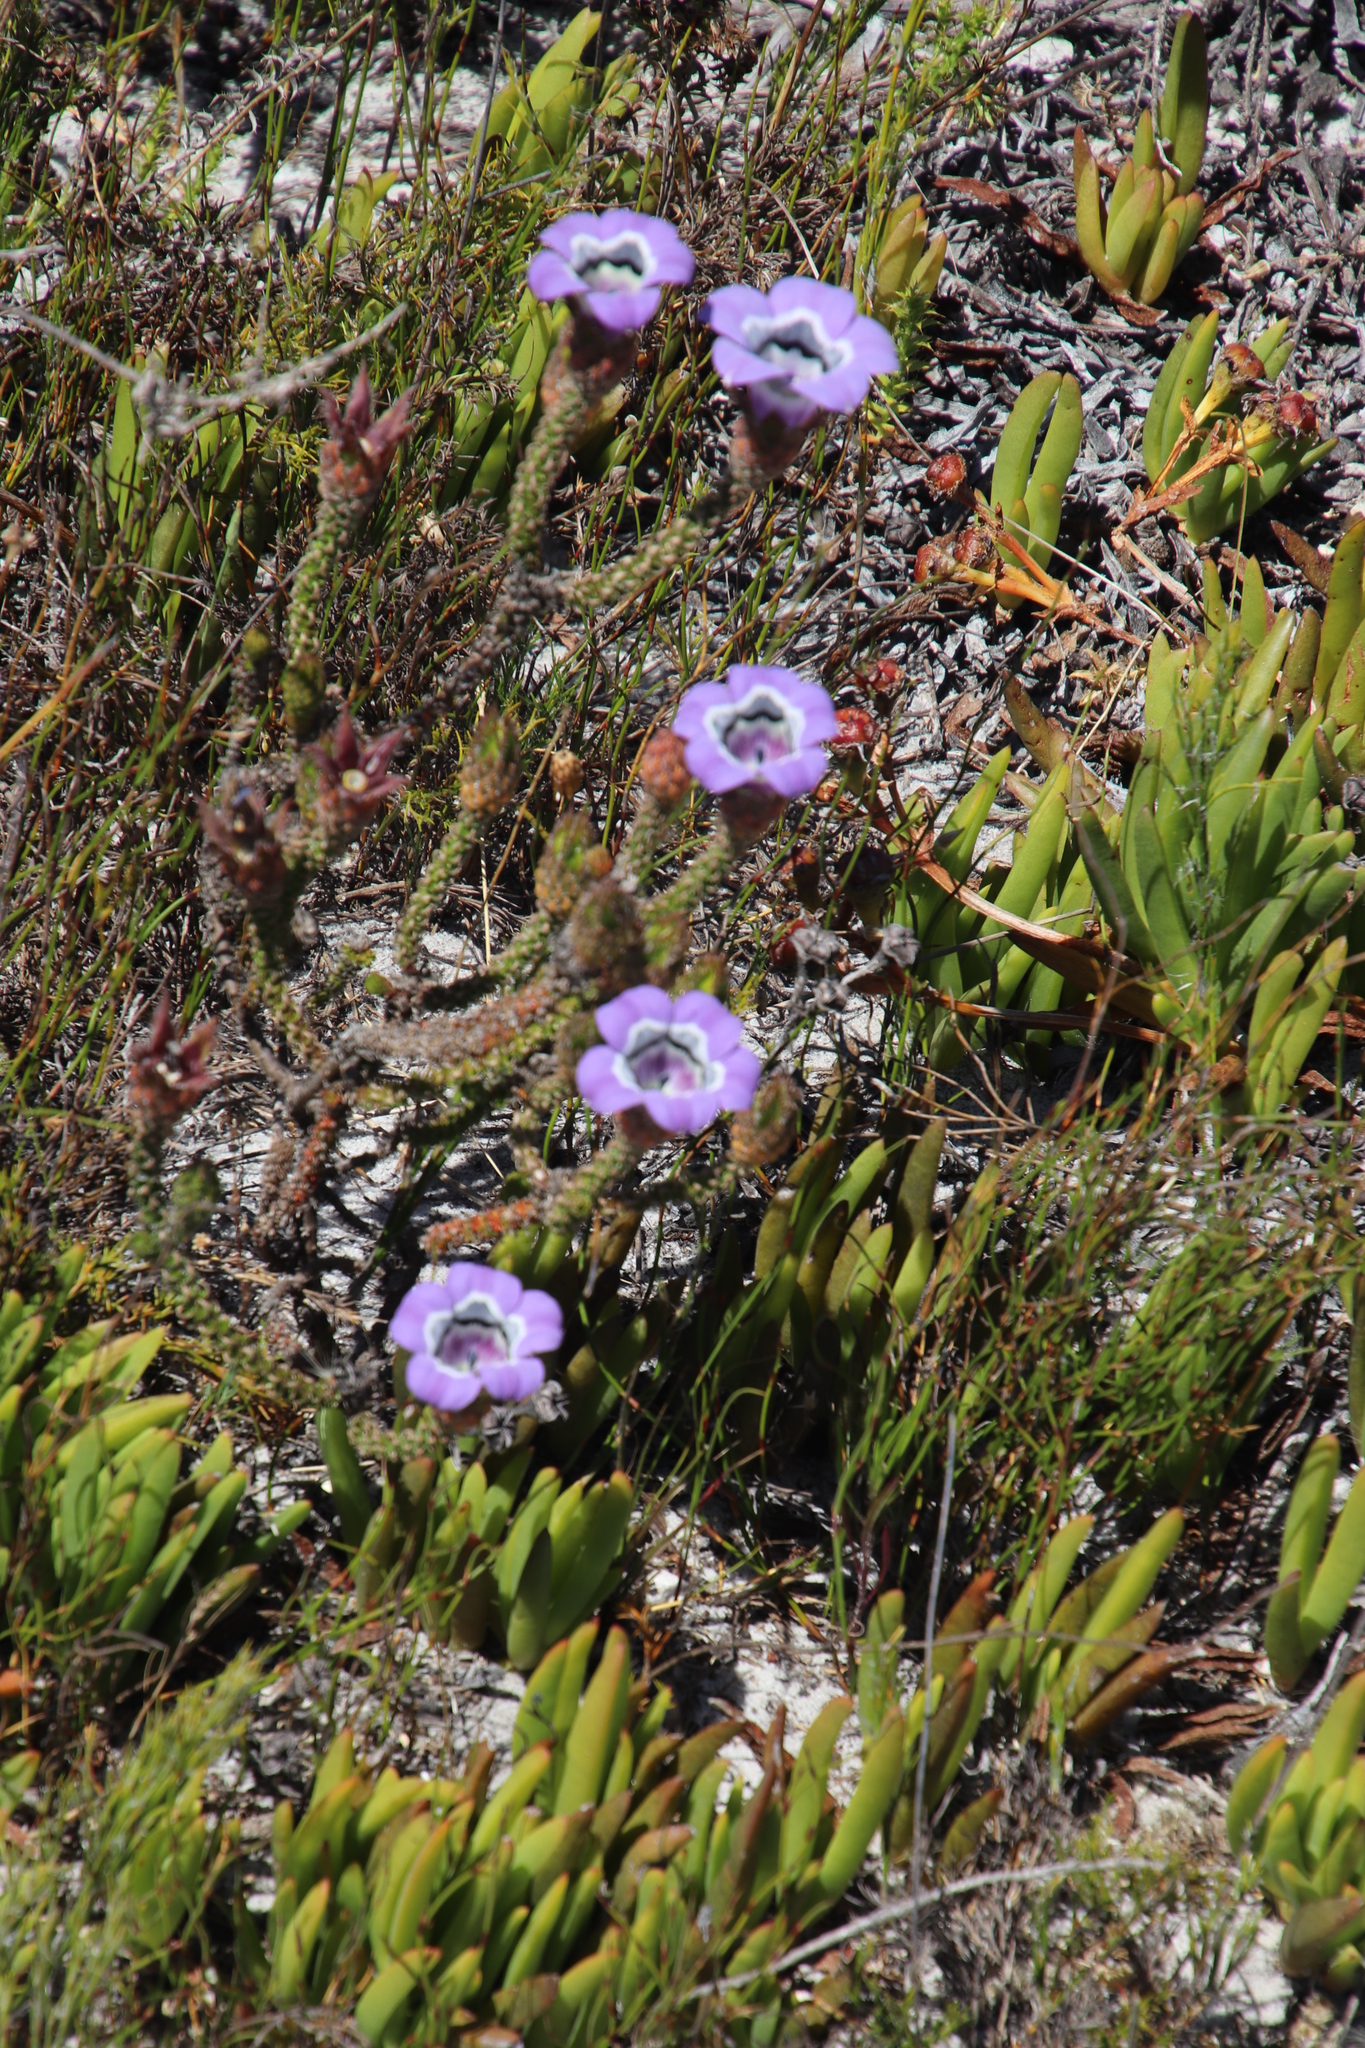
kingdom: Plantae
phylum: Tracheophyta
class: Magnoliopsida
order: Asterales
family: Campanulaceae
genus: Roella
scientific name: Roella ciliata
